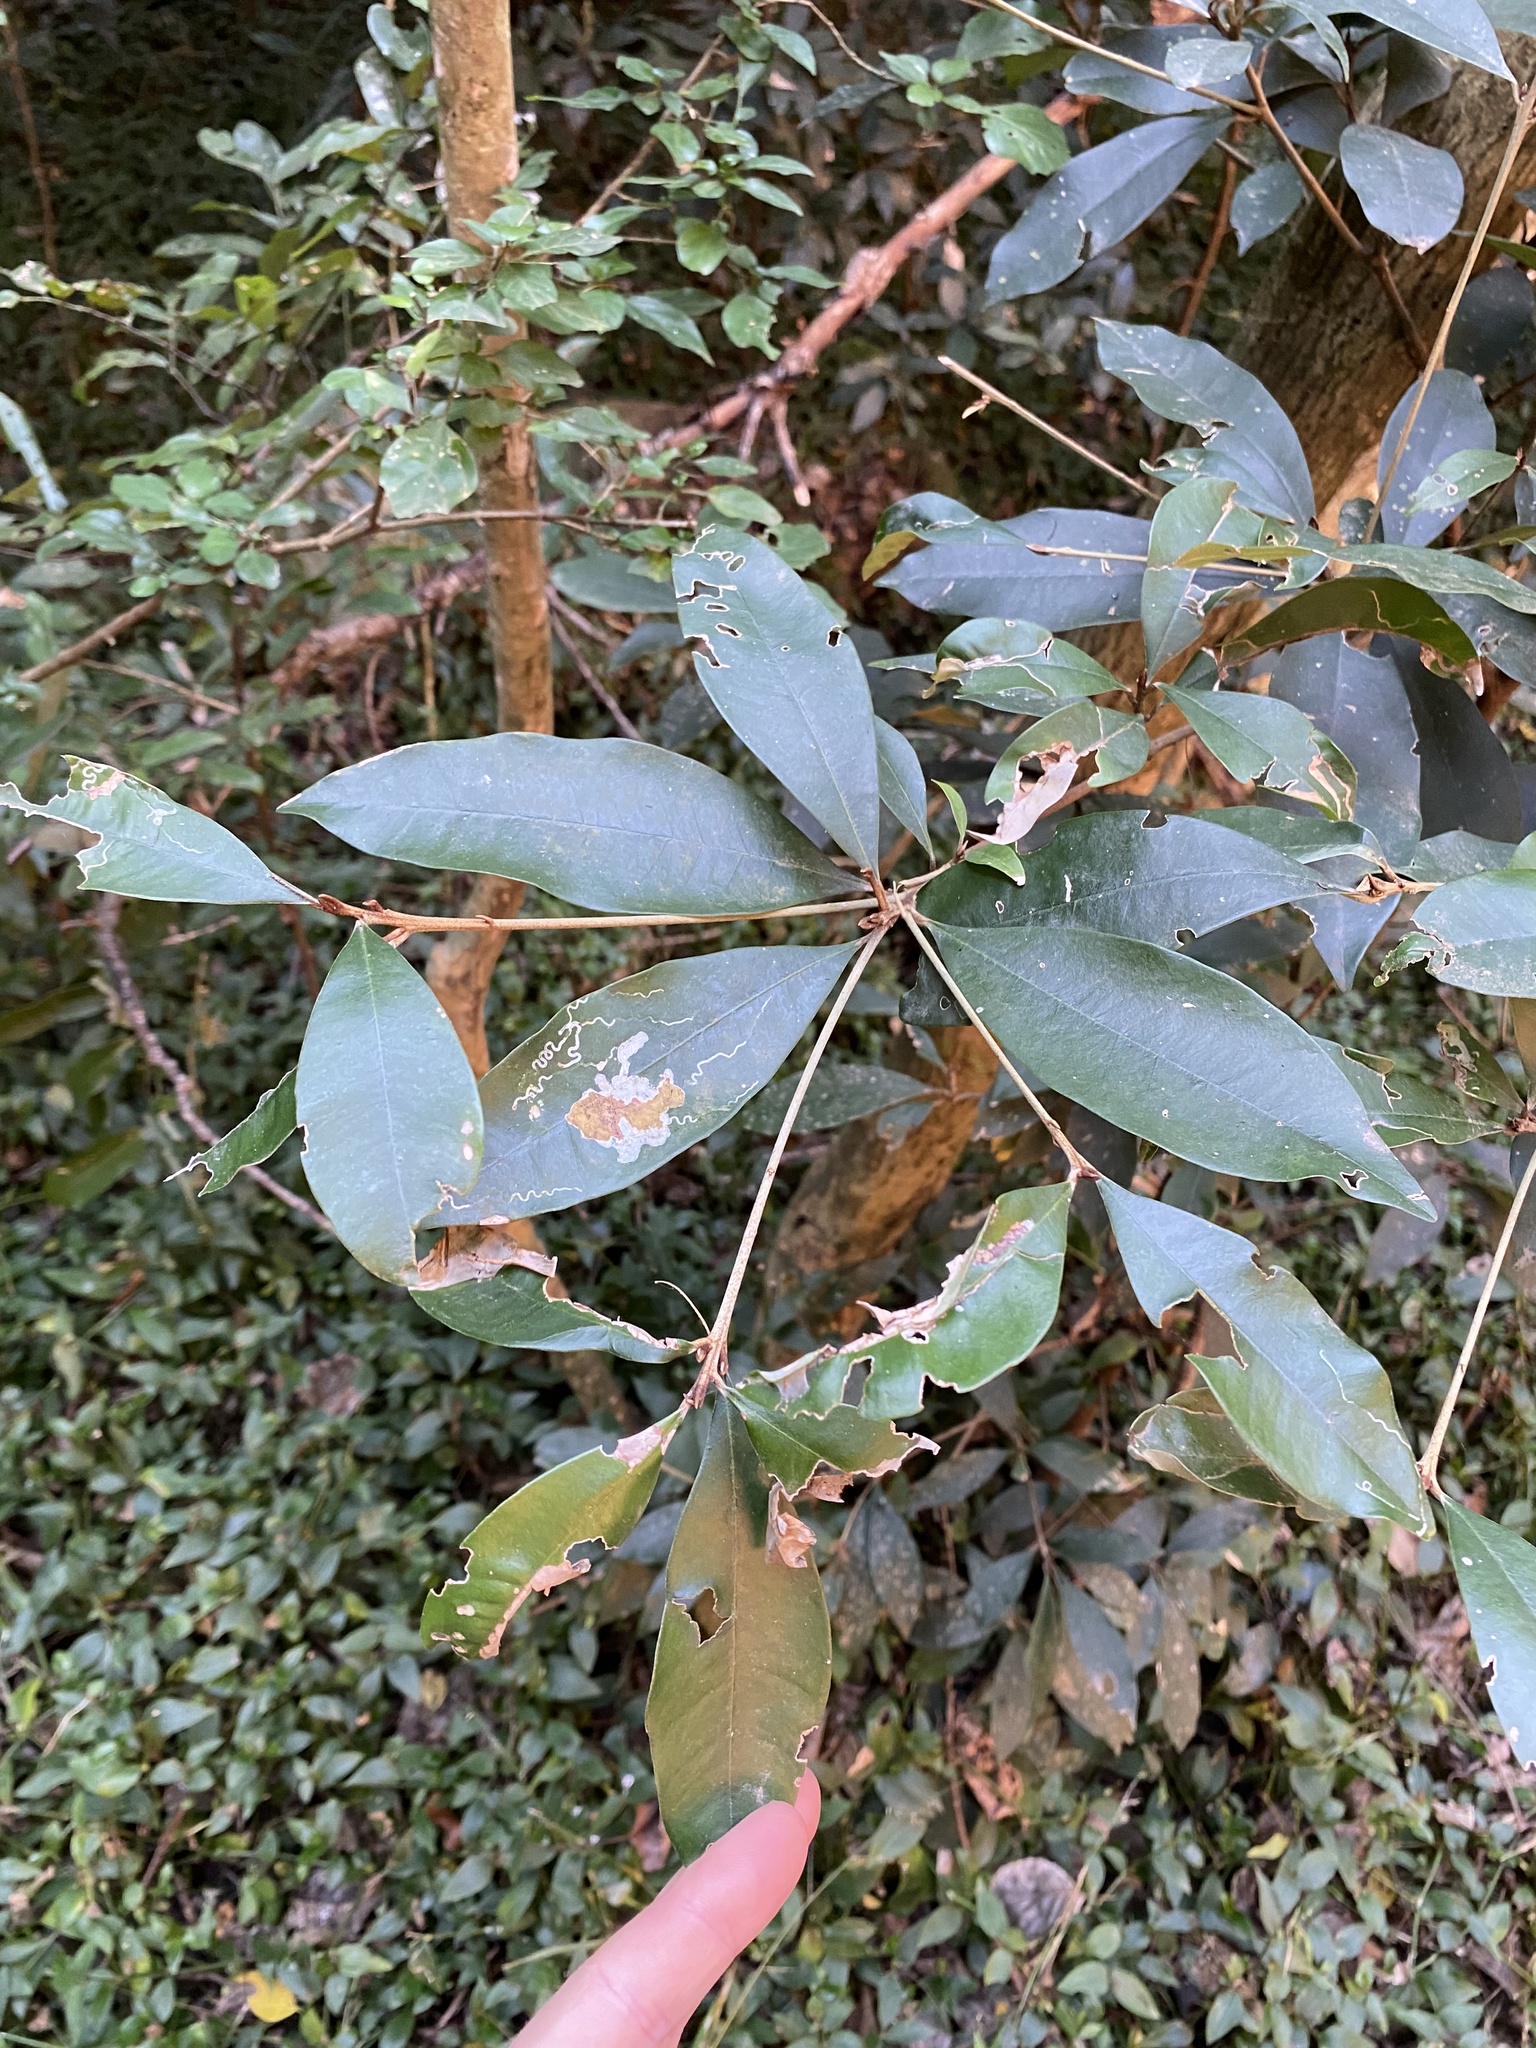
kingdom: Plantae
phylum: Tracheophyta
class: Magnoliopsida
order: Ericales
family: Sapotaceae
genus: Englerophytum
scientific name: Englerophytum natalense
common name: Silver-leaved milkplum
